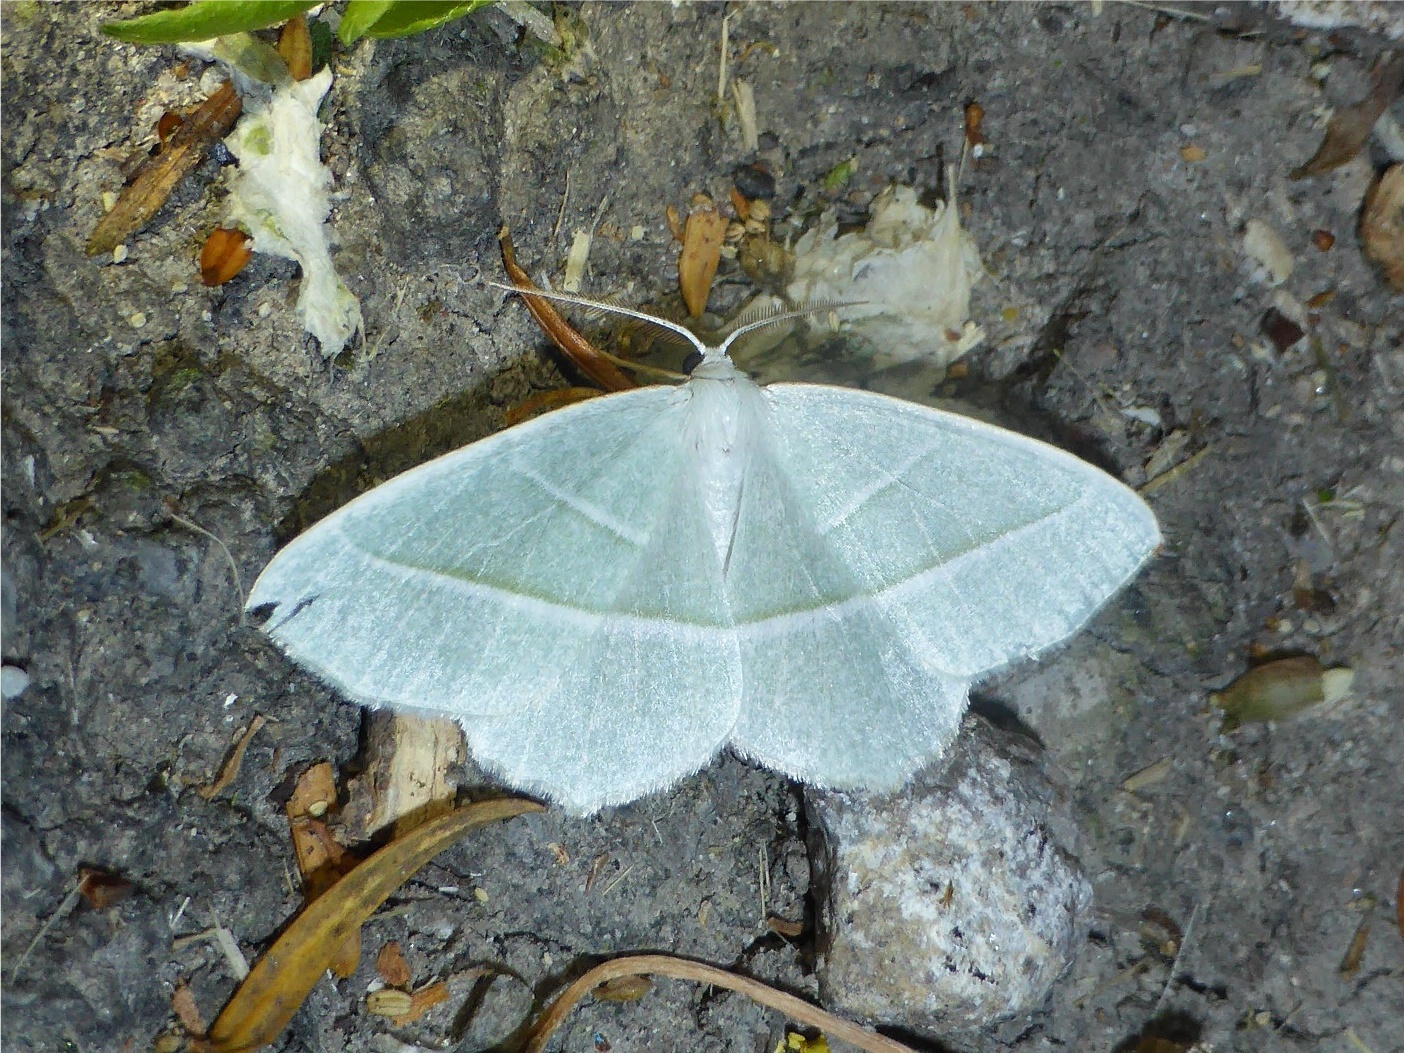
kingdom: Animalia
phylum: Arthropoda
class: Insecta
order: Lepidoptera
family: Geometridae
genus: Campaea
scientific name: Campaea margaritaria
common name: Light emerald
